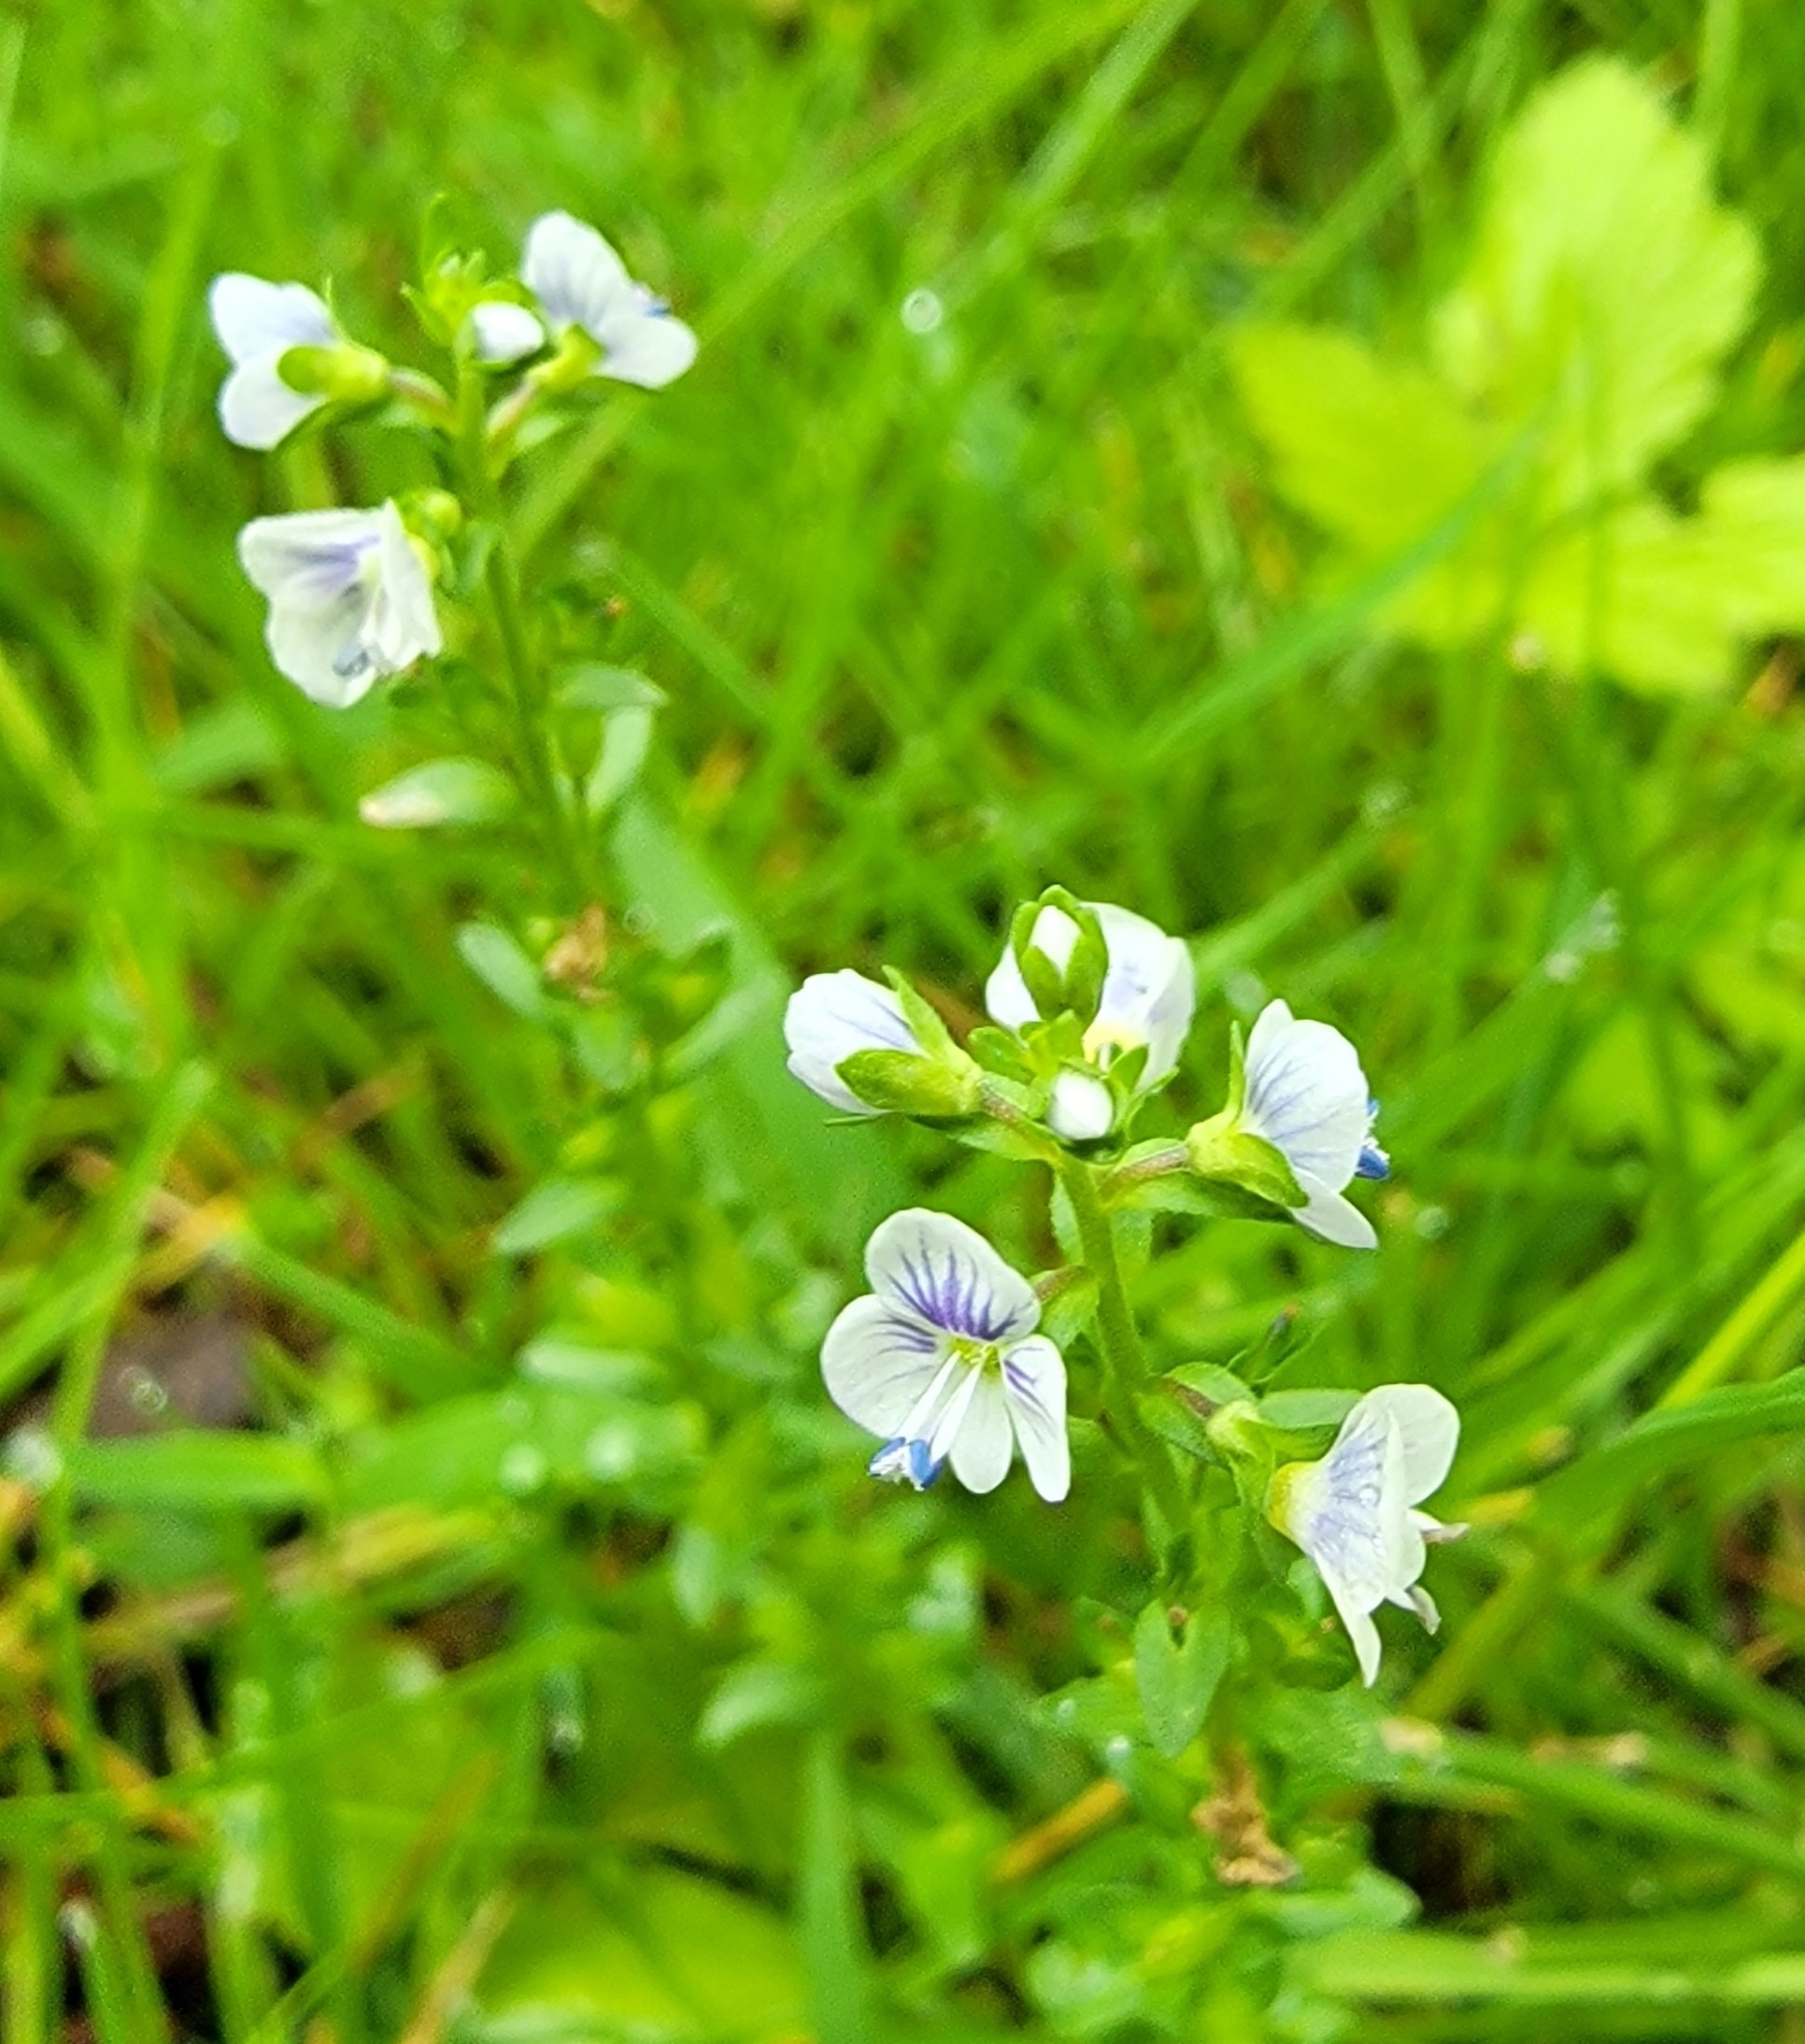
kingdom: Plantae
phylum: Tracheophyta
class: Magnoliopsida
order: Lamiales
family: Plantaginaceae
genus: Veronica
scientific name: Veronica serpyllifolia
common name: Thyme-leaved speedwell
